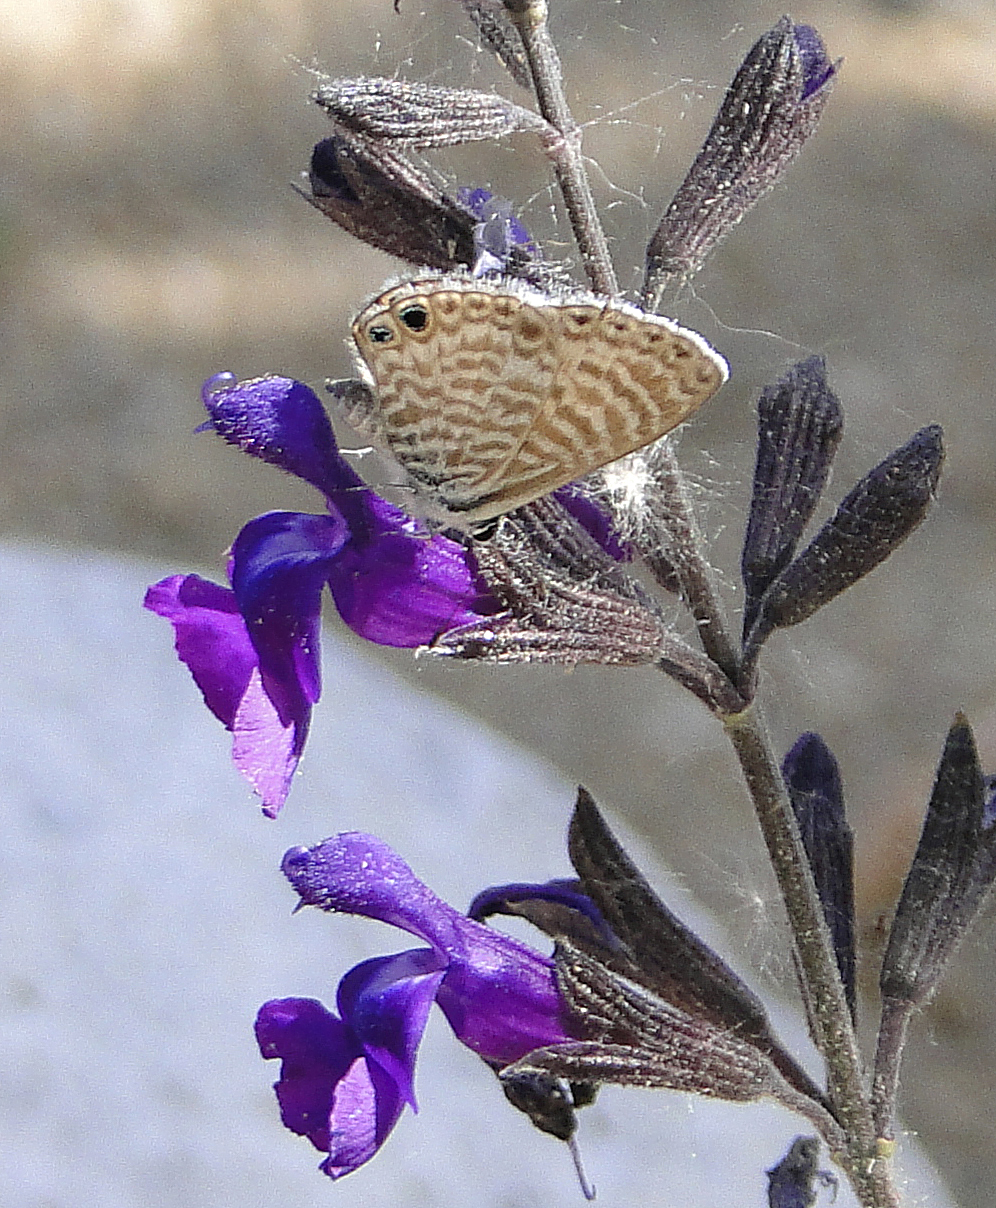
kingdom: Animalia
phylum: Arthropoda
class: Insecta
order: Lepidoptera
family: Lycaenidae
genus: Leptotes
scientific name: Leptotes marina
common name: Marine blue
